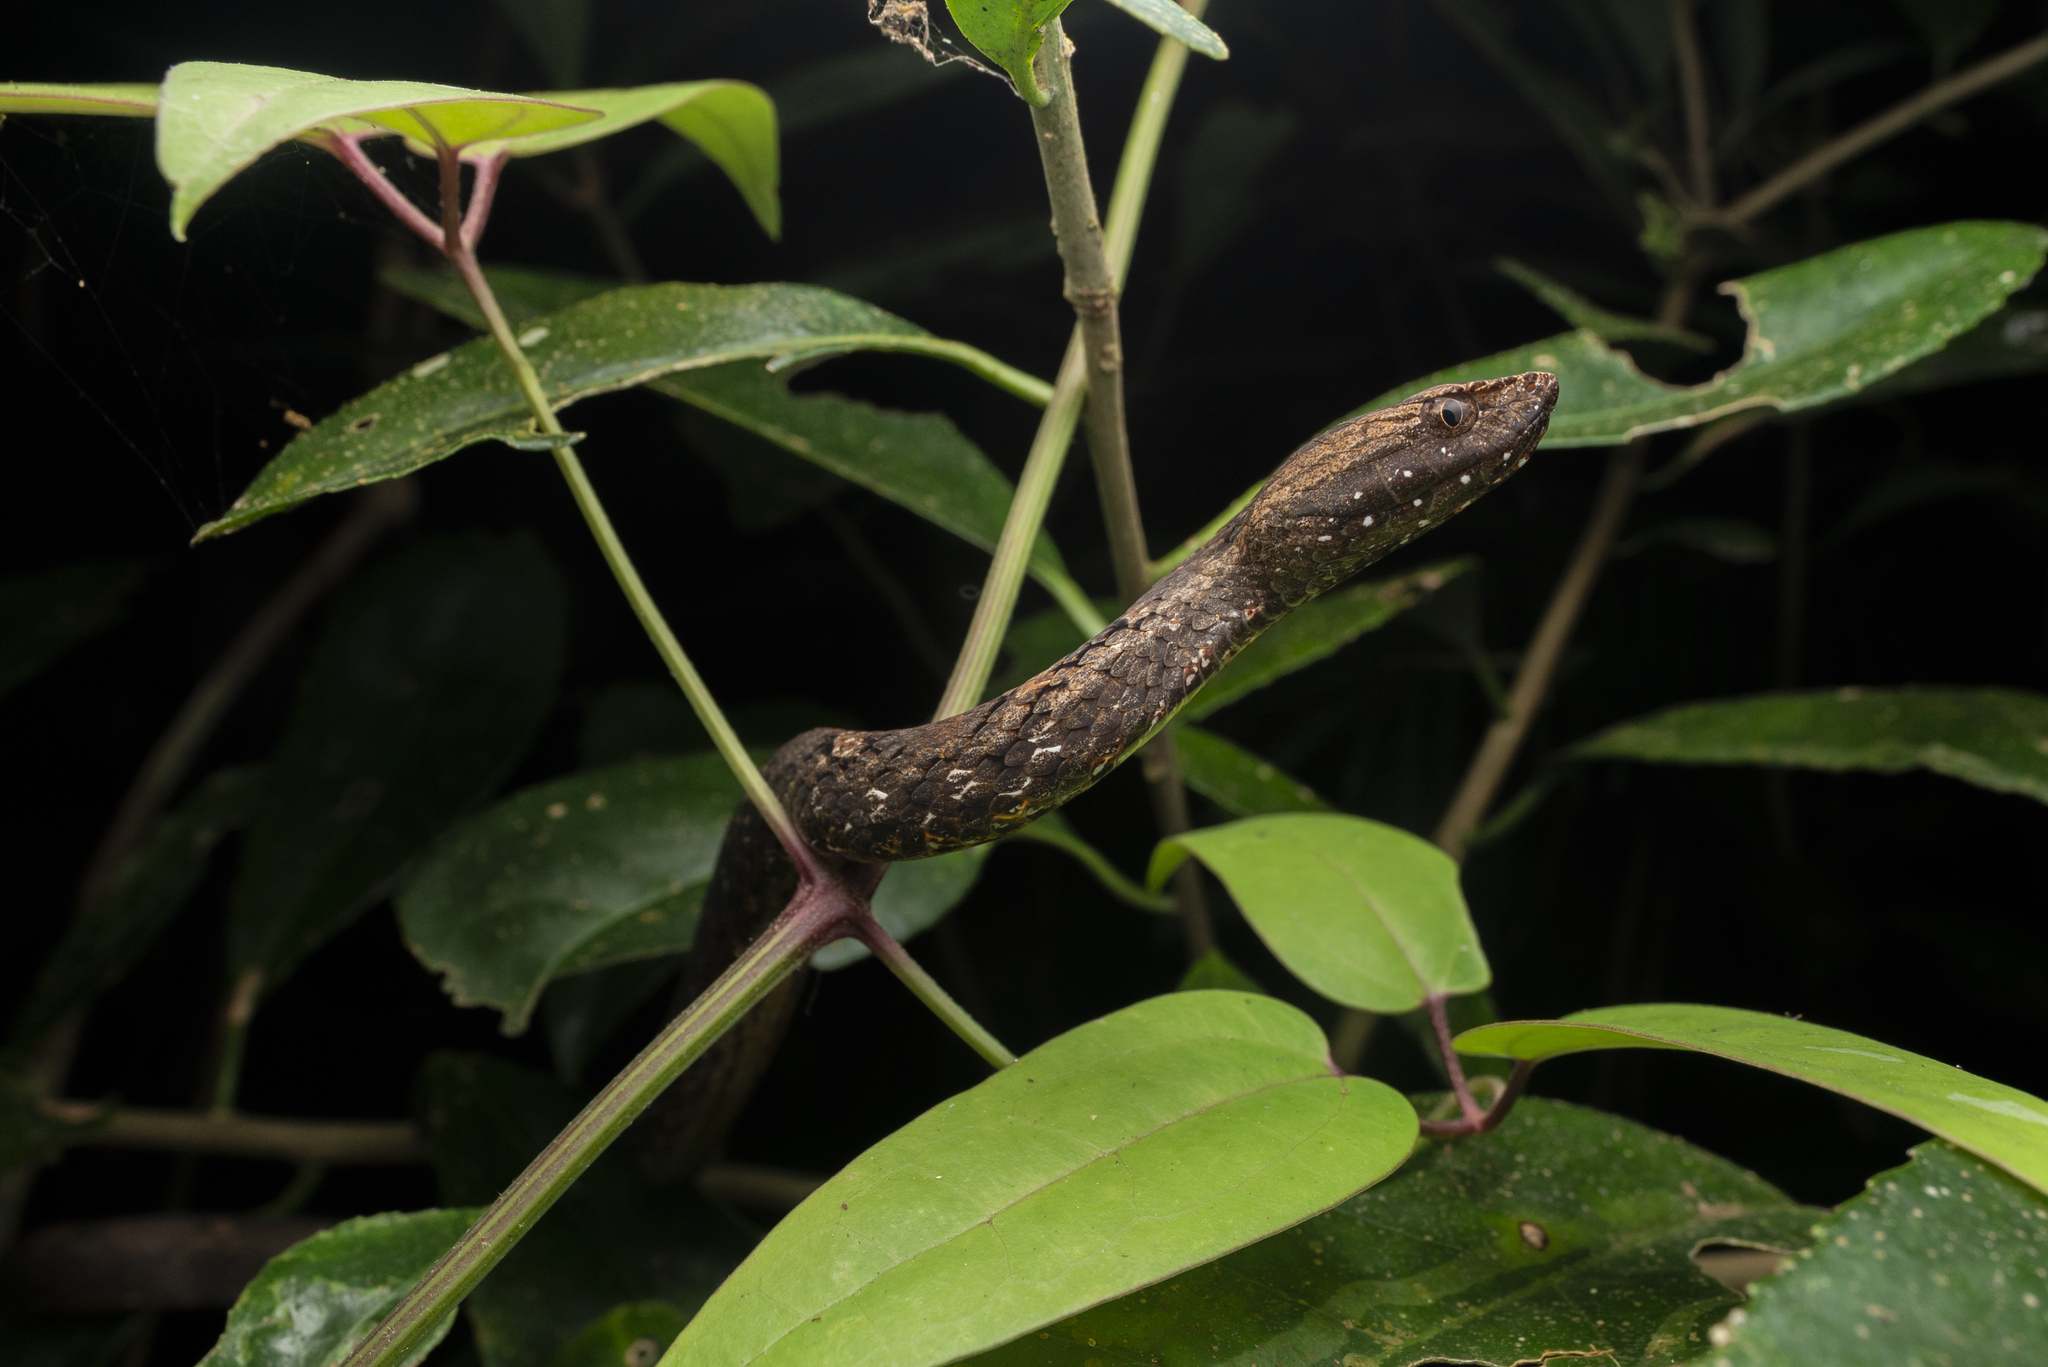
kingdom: Animalia
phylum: Chordata
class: Squamata
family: Pseudaspididae
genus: Psammodynastes
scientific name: Psammodynastes pulverulentus
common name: Common mock viper
